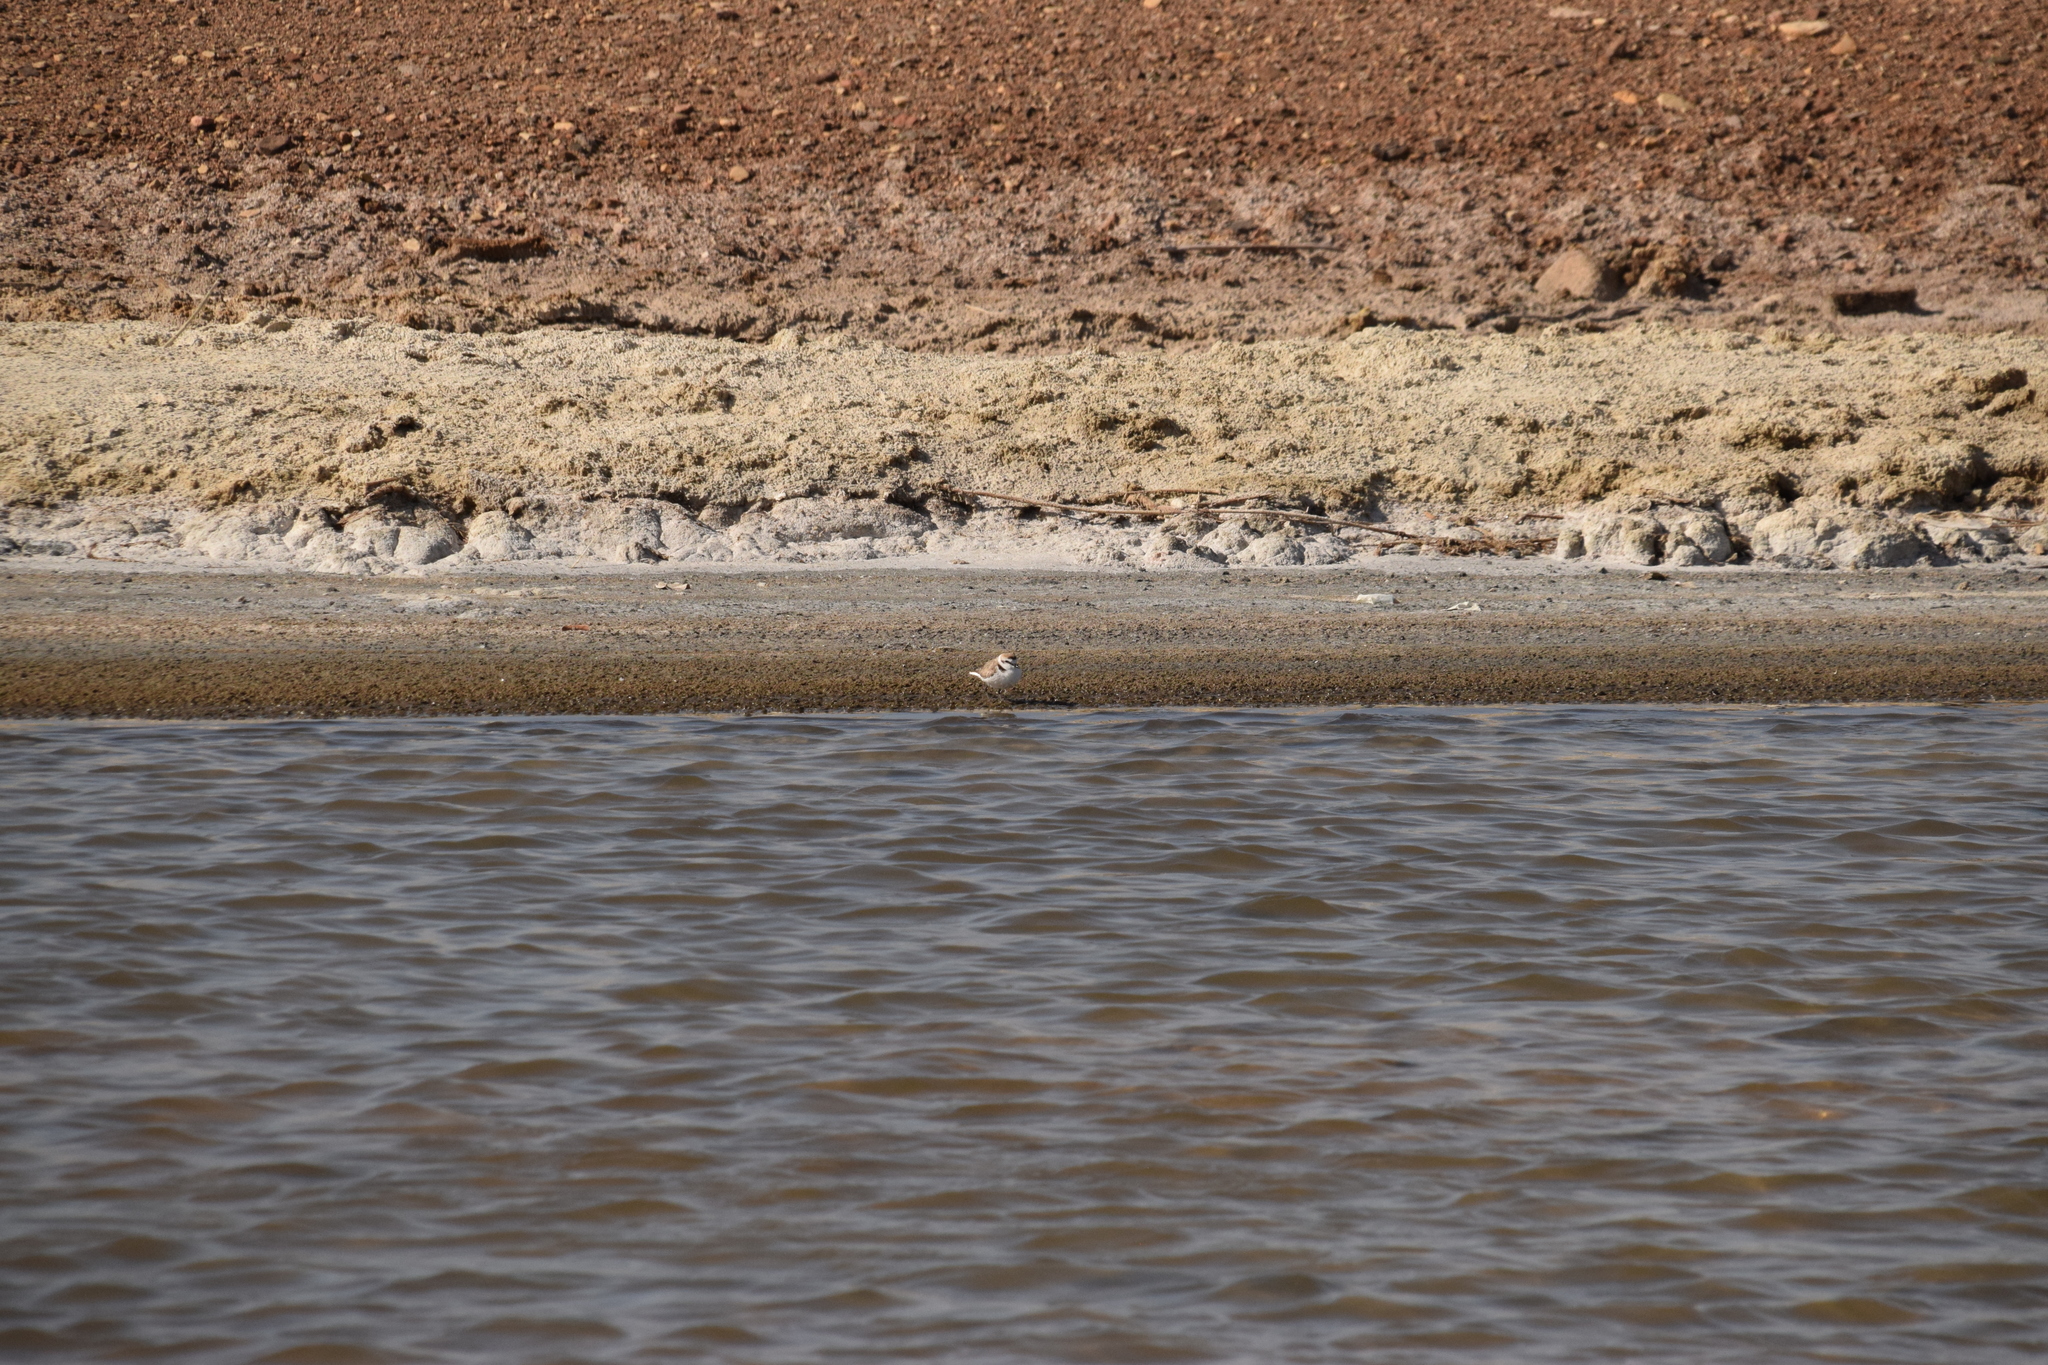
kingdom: Animalia
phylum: Chordata
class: Aves
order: Charadriiformes
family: Charadriidae
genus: Charadrius
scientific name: Charadrius alexandrinus
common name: Kentish plover
